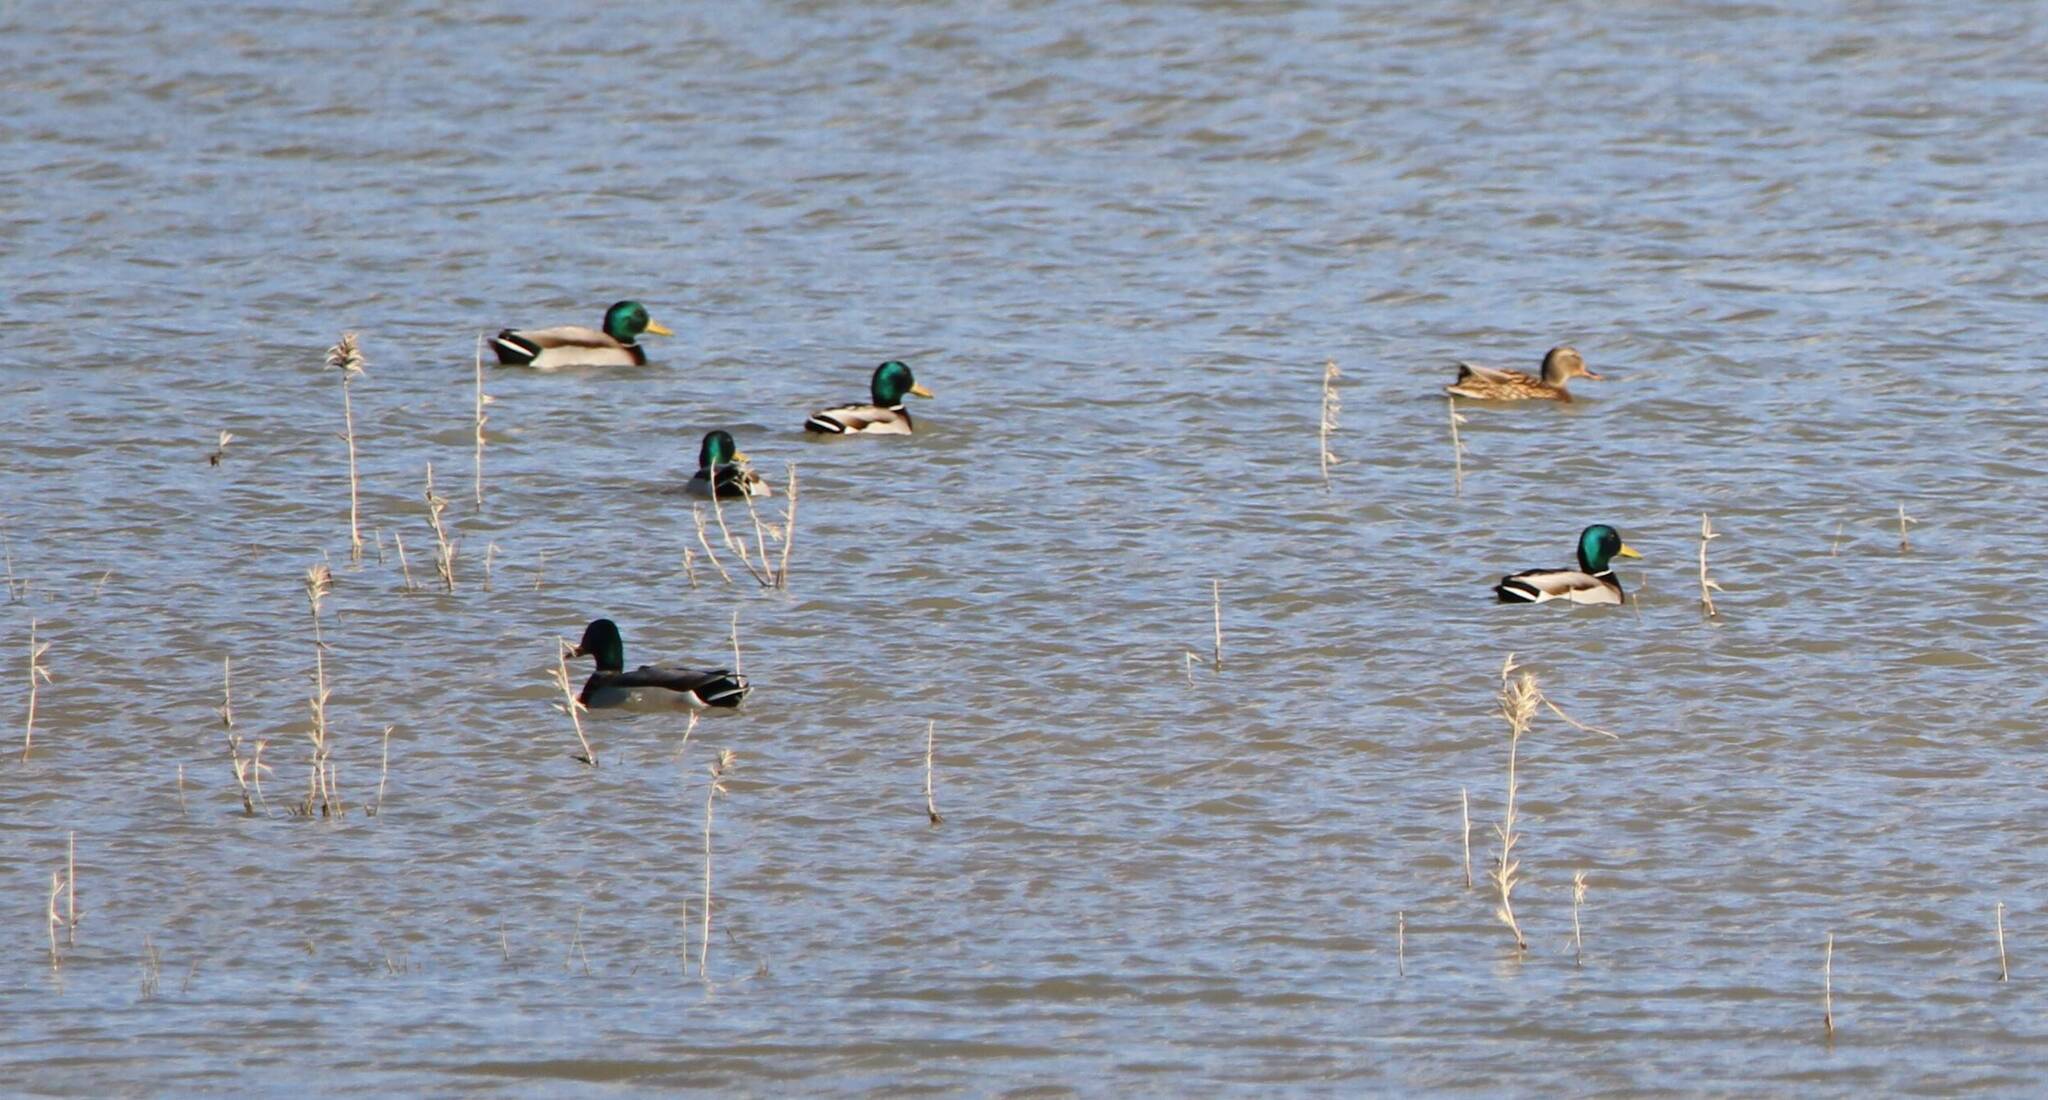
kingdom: Animalia
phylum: Chordata
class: Aves
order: Anseriformes
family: Anatidae
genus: Anas
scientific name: Anas platyrhynchos
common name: Mallard
